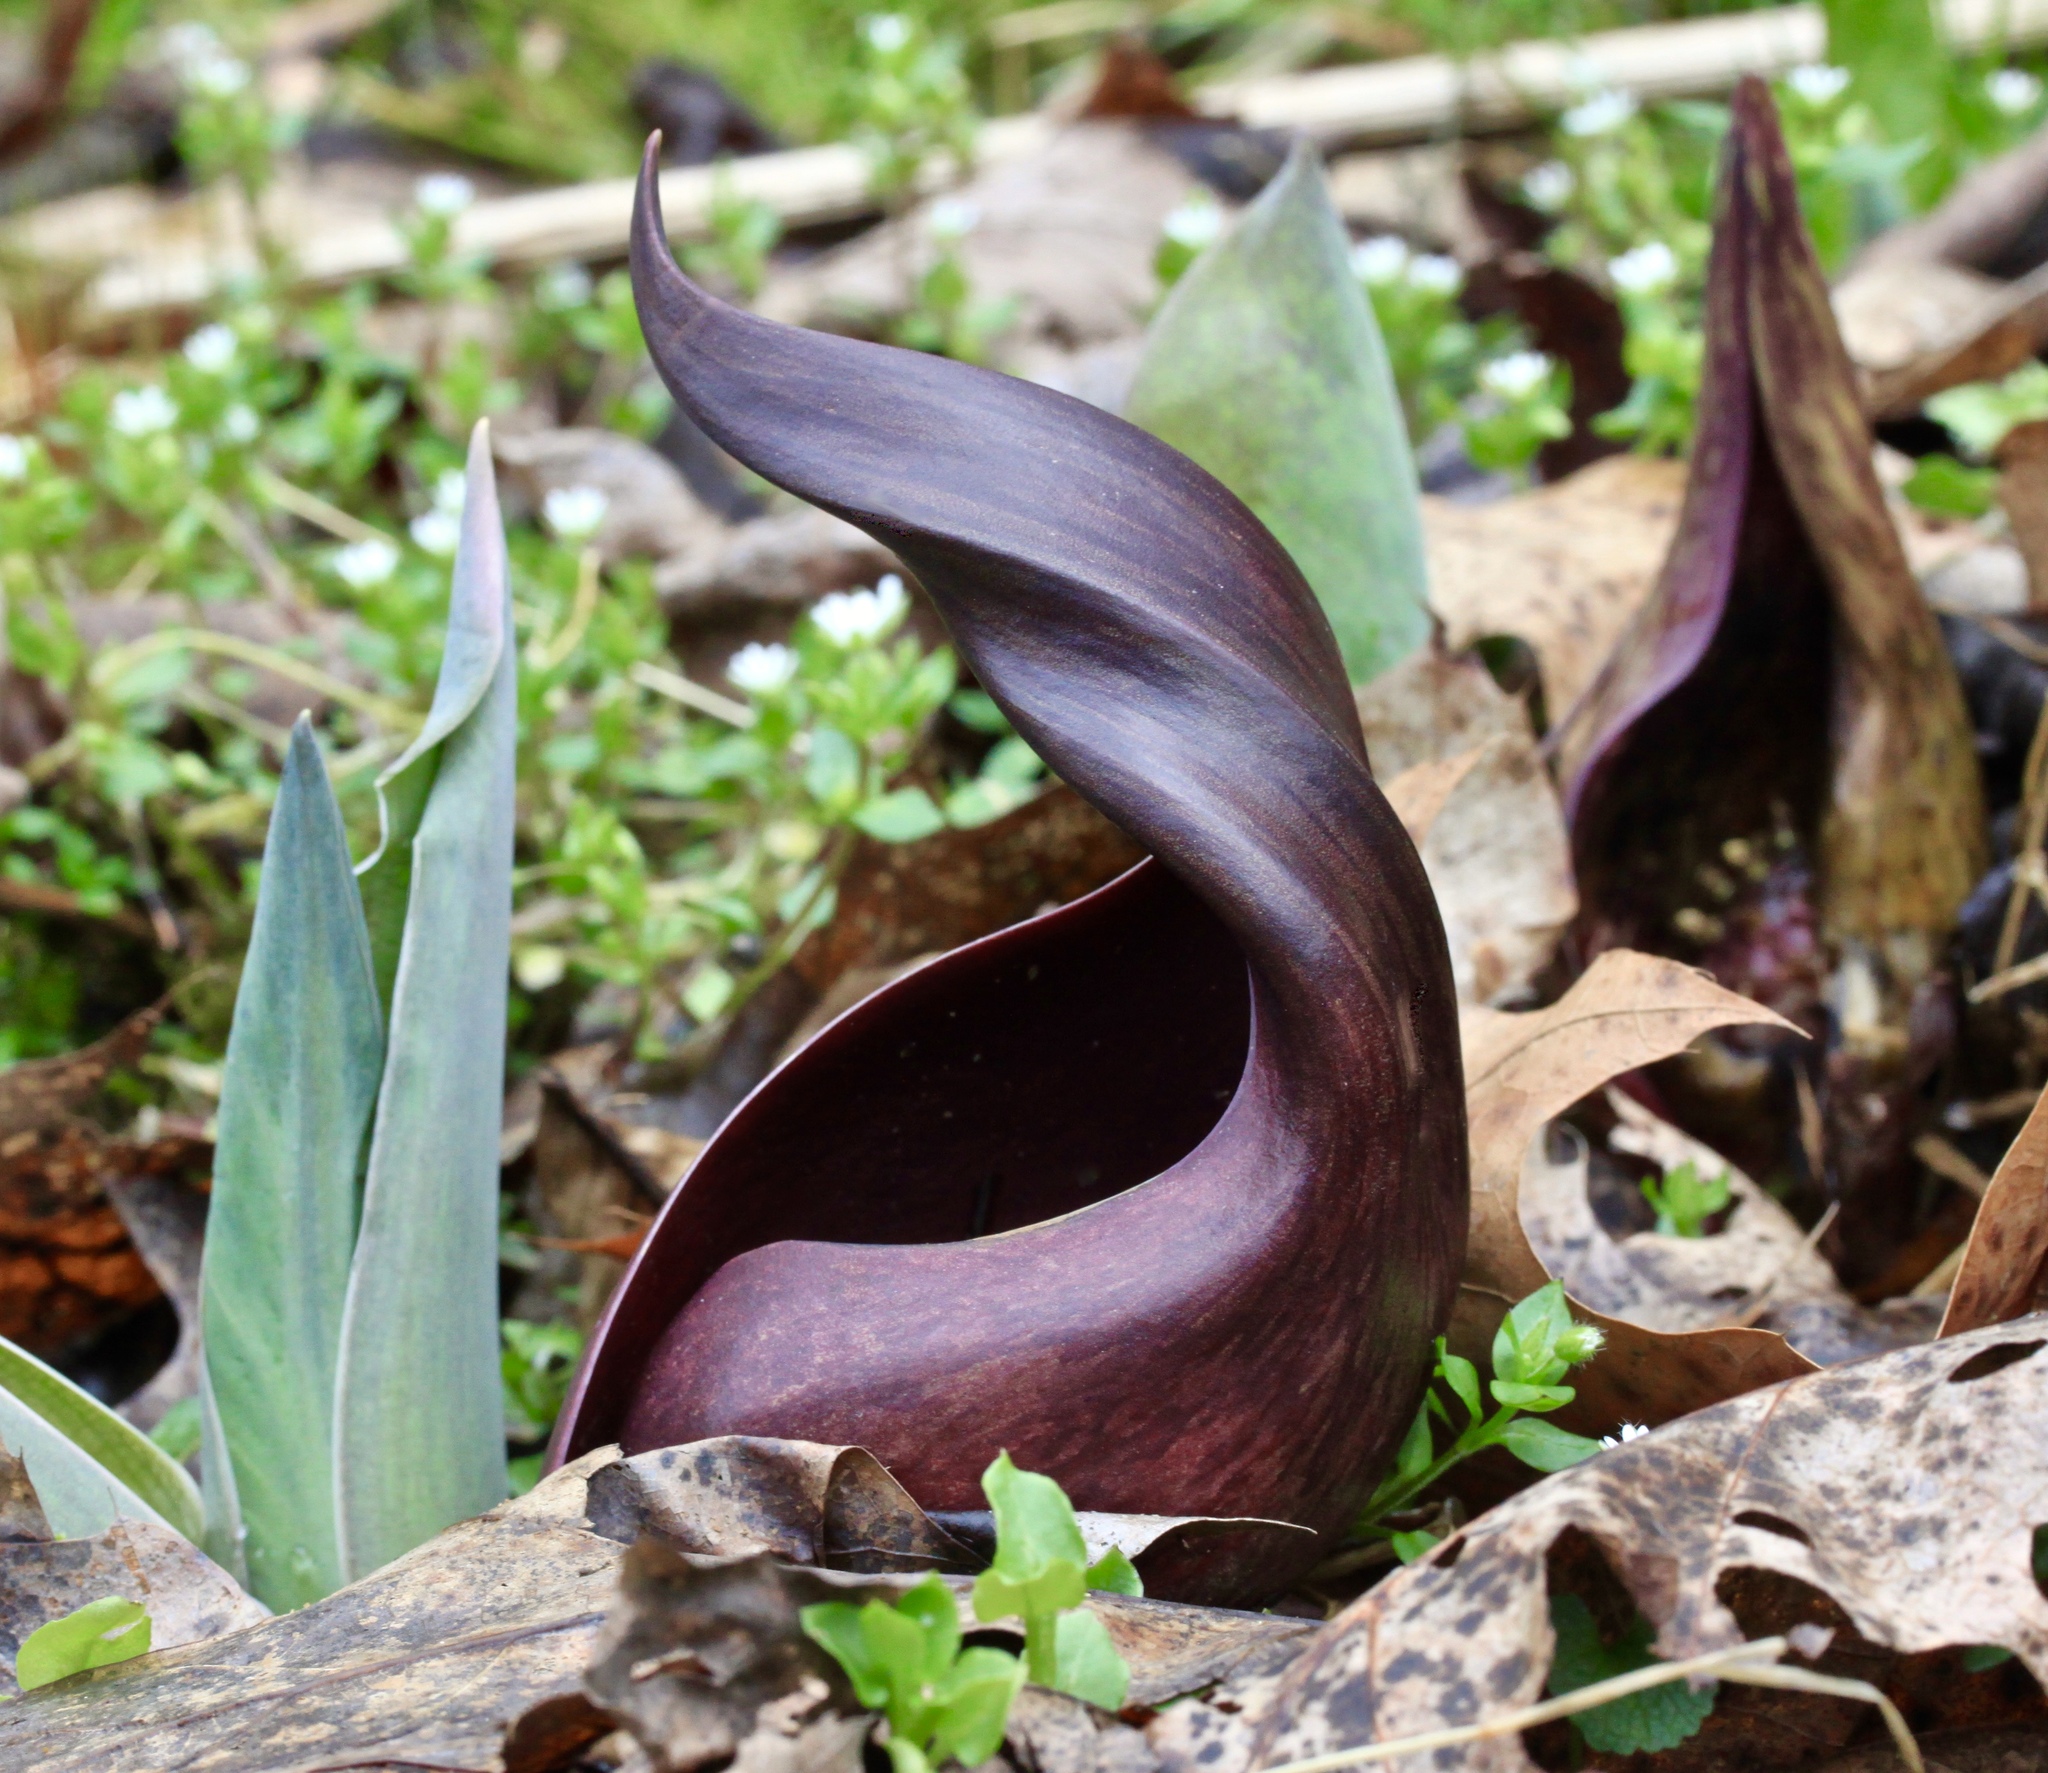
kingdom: Plantae
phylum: Tracheophyta
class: Liliopsida
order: Alismatales
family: Araceae
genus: Symplocarpus
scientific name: Symplocarpus foetidus
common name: Eastern skunk cabbage
